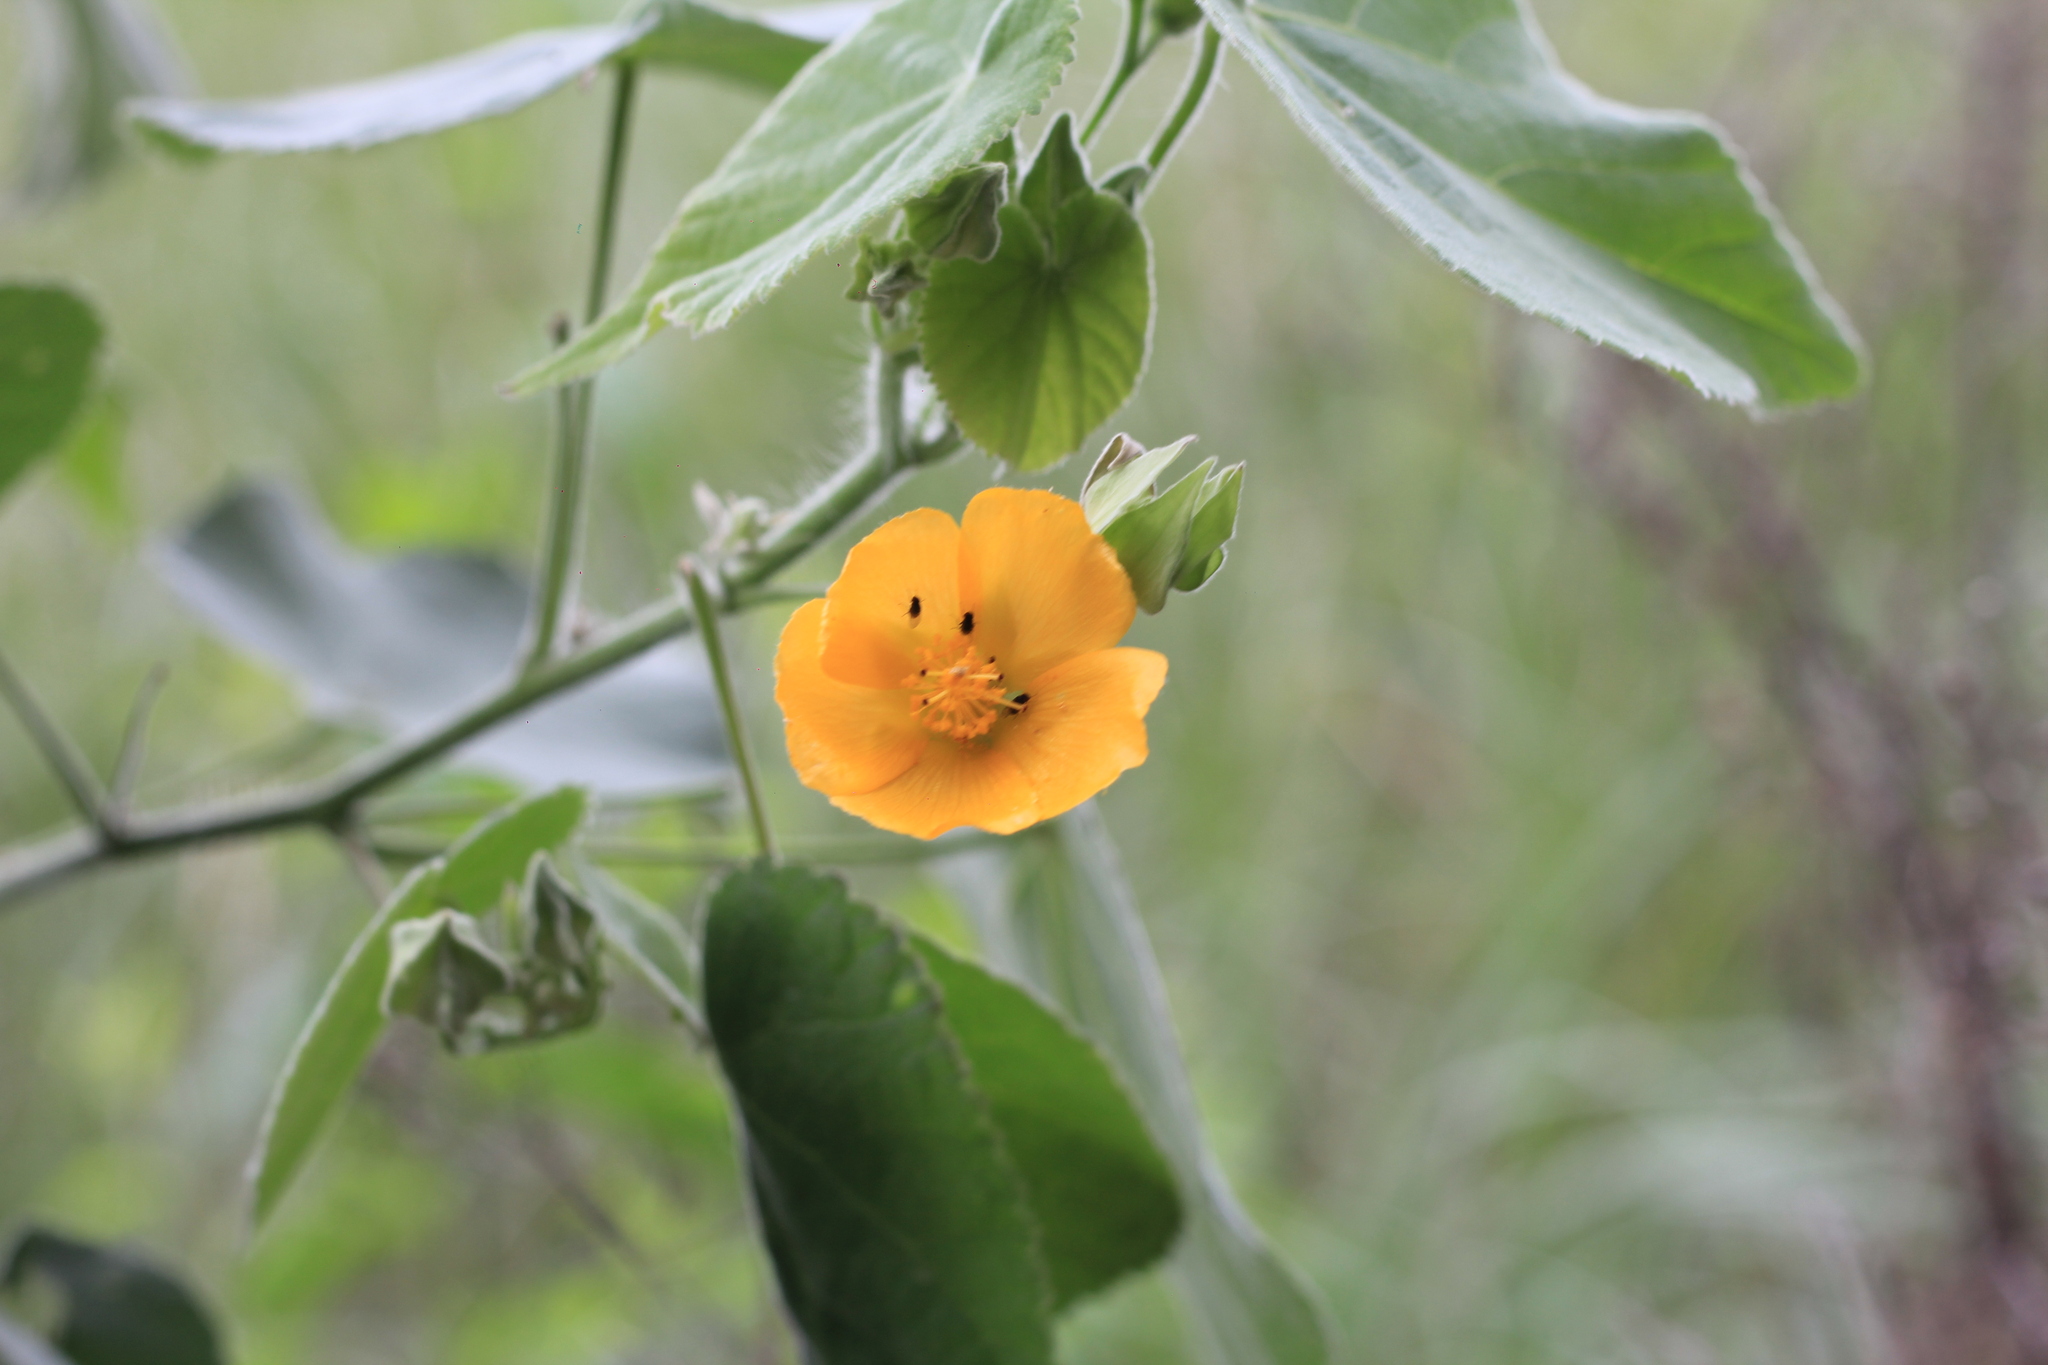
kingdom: Plantae
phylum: Tracheophyta
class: Magnoliopsida
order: Malvales
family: Malvaceae
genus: Abutilon
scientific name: Abutilon grandifolium
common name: Hairy abutilon
